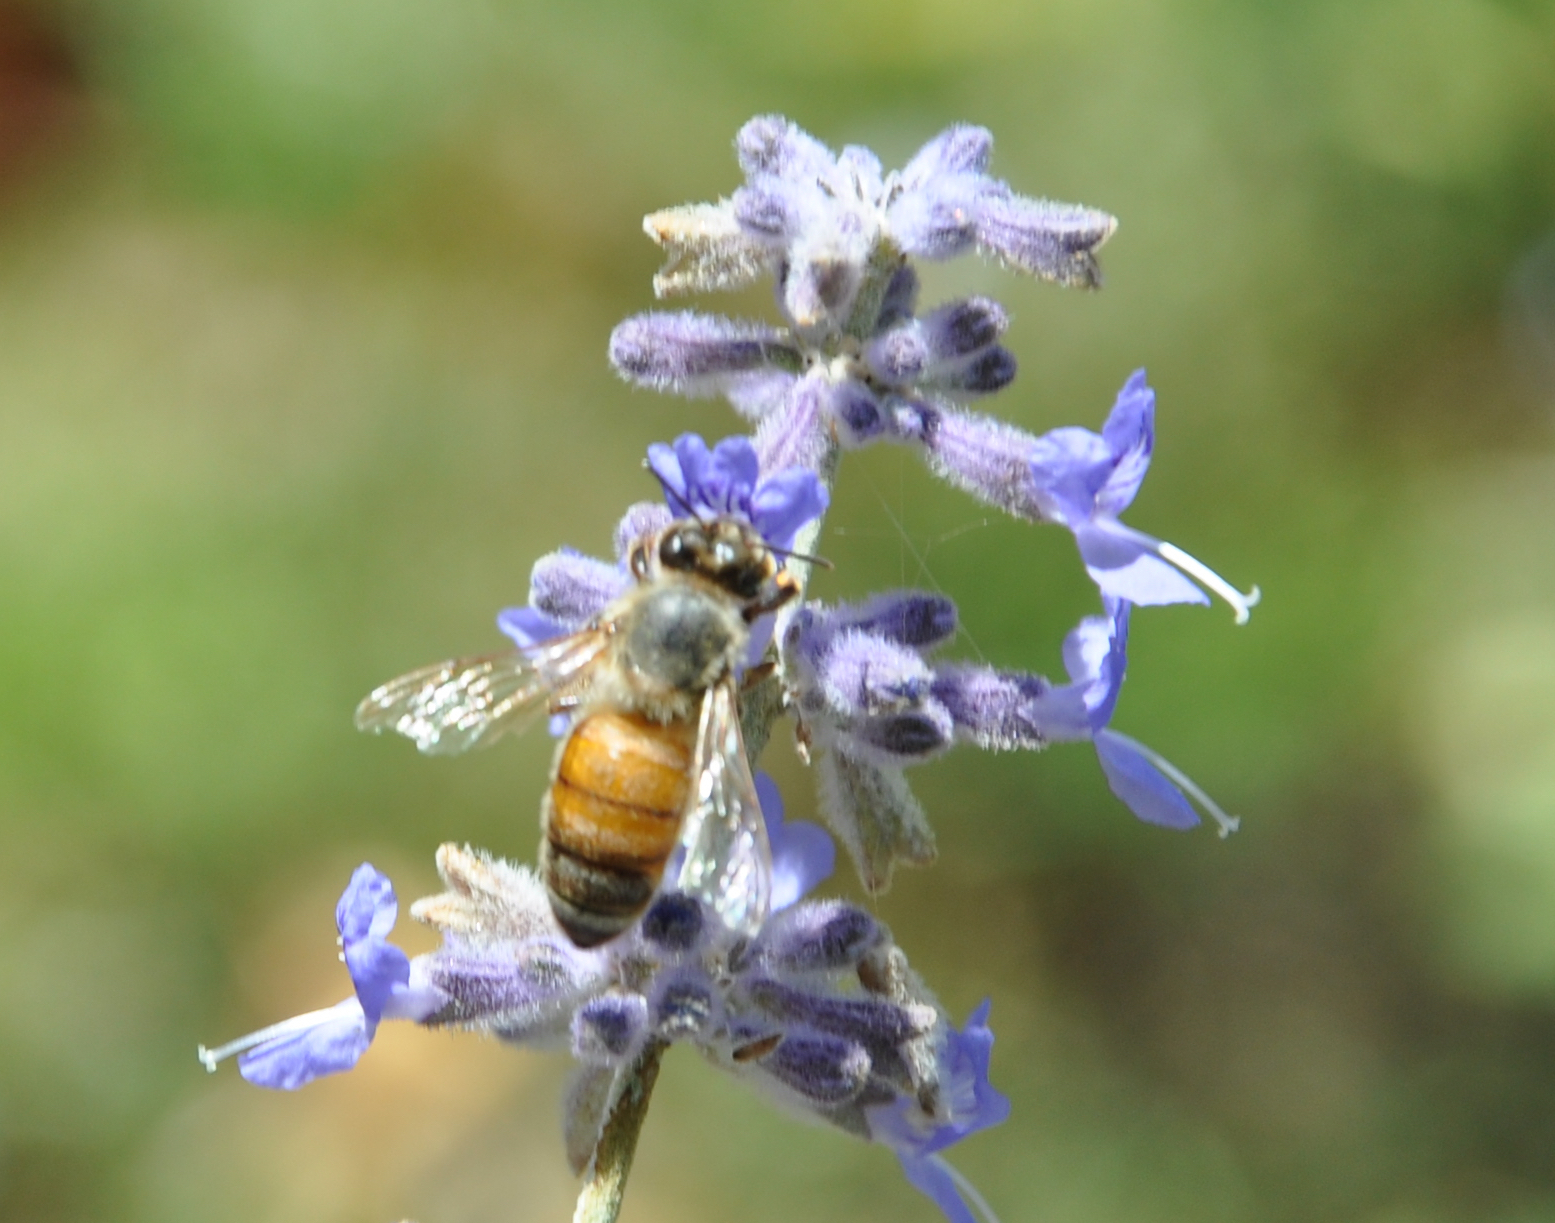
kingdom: Animalia
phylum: Arthropoda
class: Insecta
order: Hymenoptera
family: Apidae
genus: Apis
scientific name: Apis mellifera
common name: Honey bee
